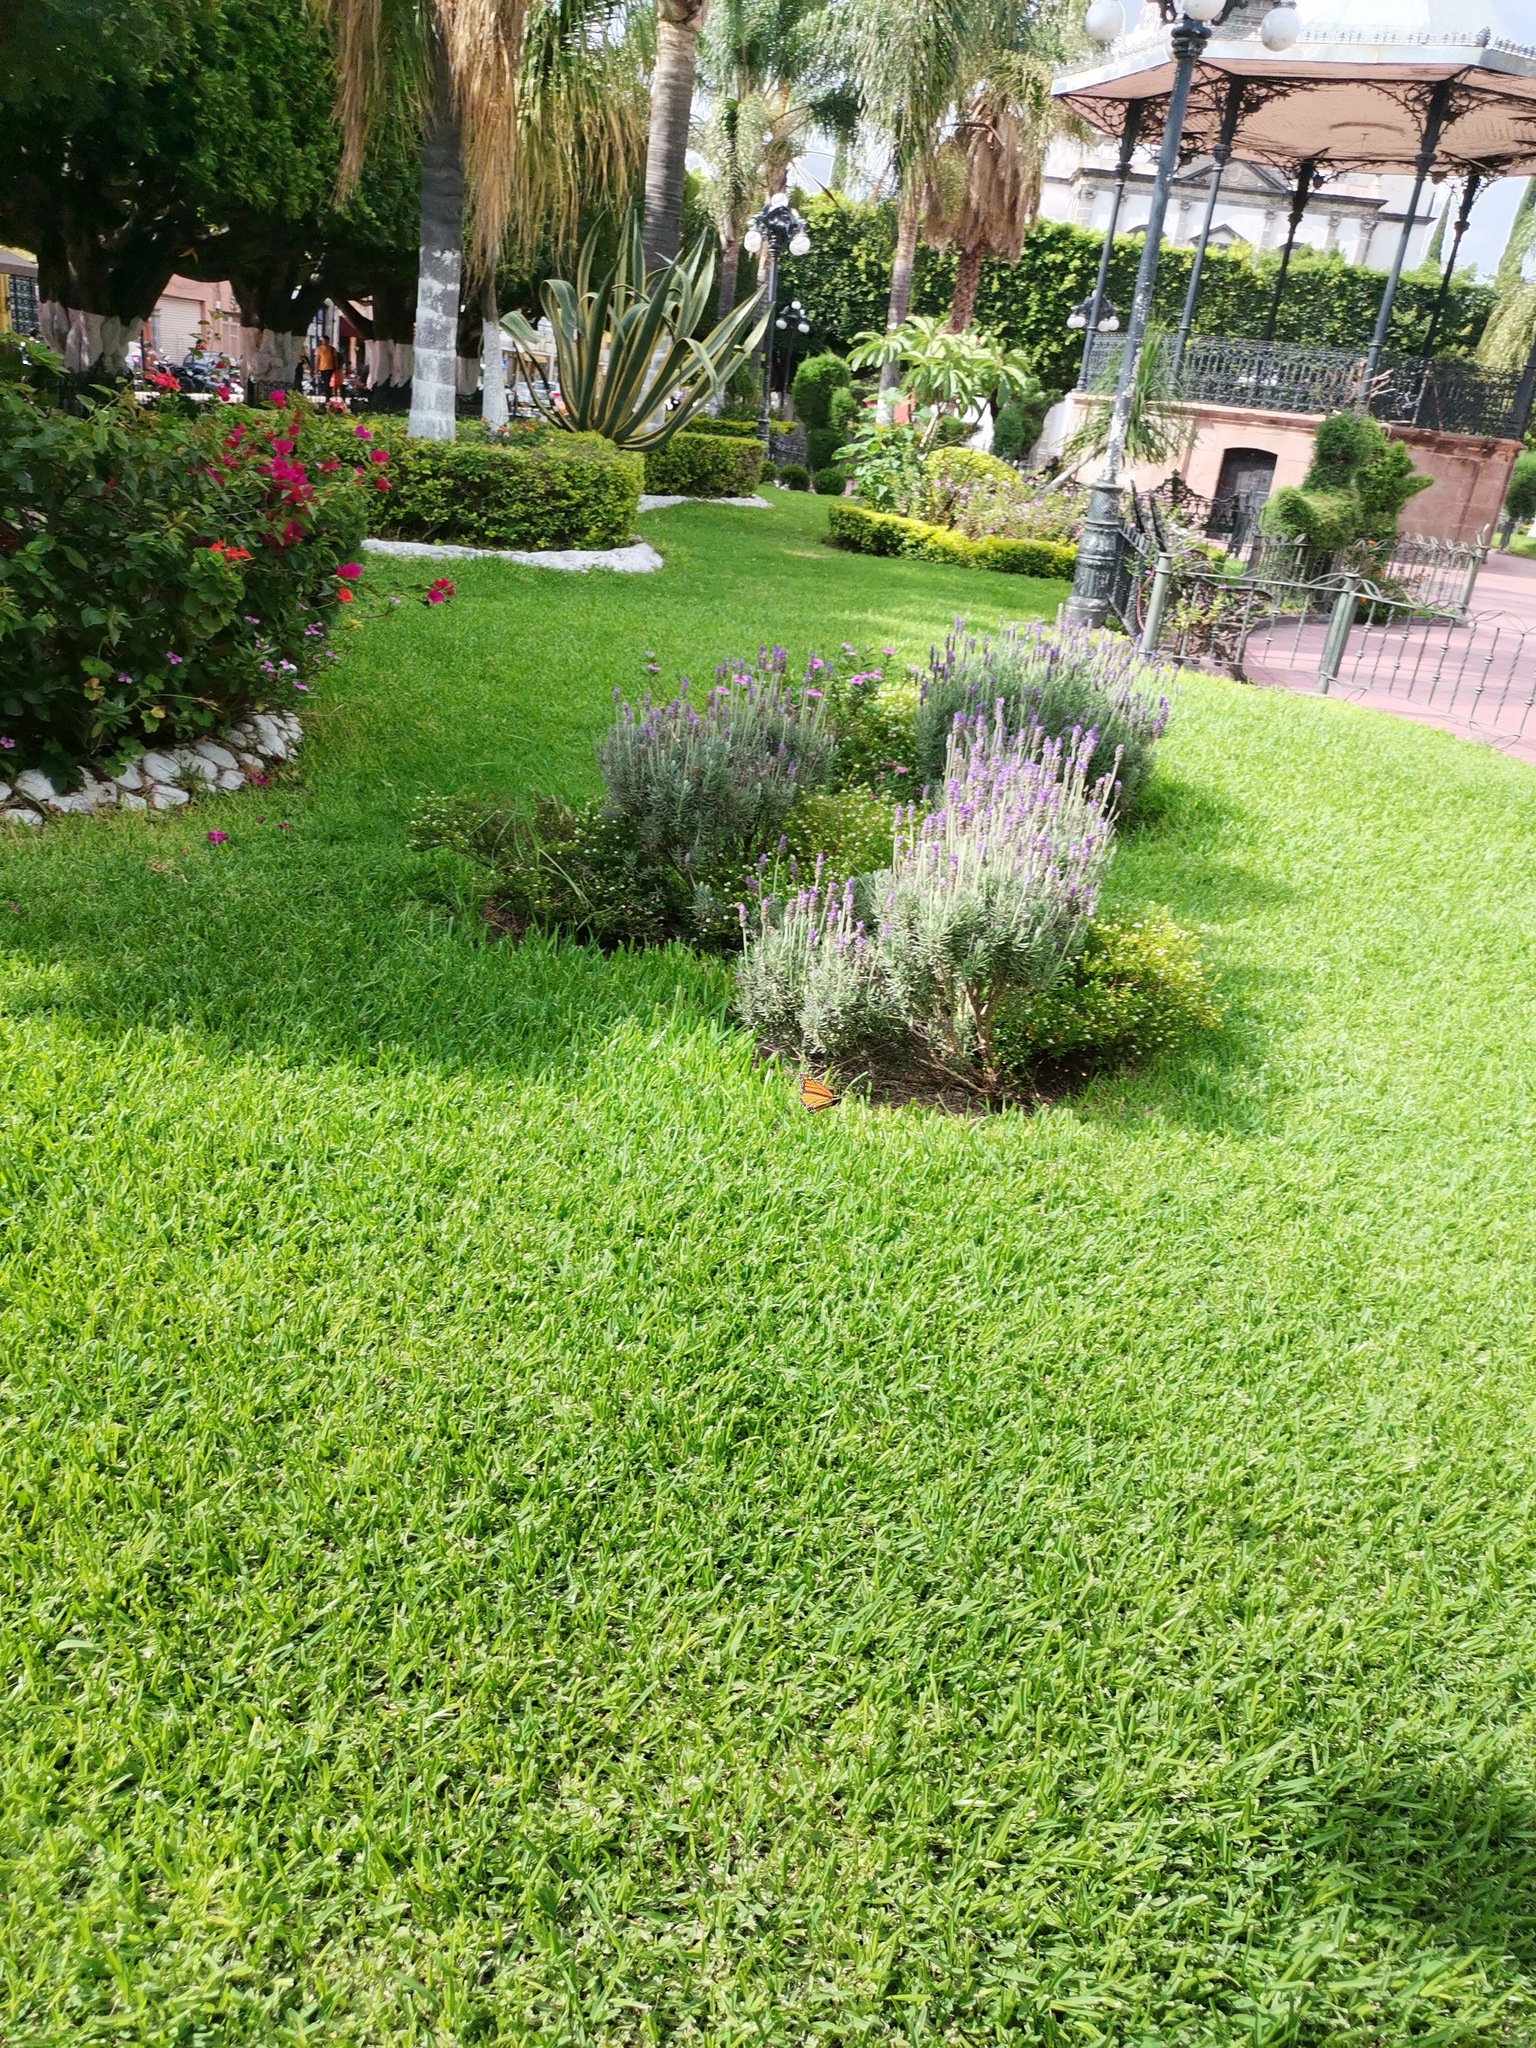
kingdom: Animalia
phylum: Arthropoda
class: Insecta
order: Lepidoptera
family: Nymphalidae
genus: Danaus
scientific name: Danaus plexippus
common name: Monarch
